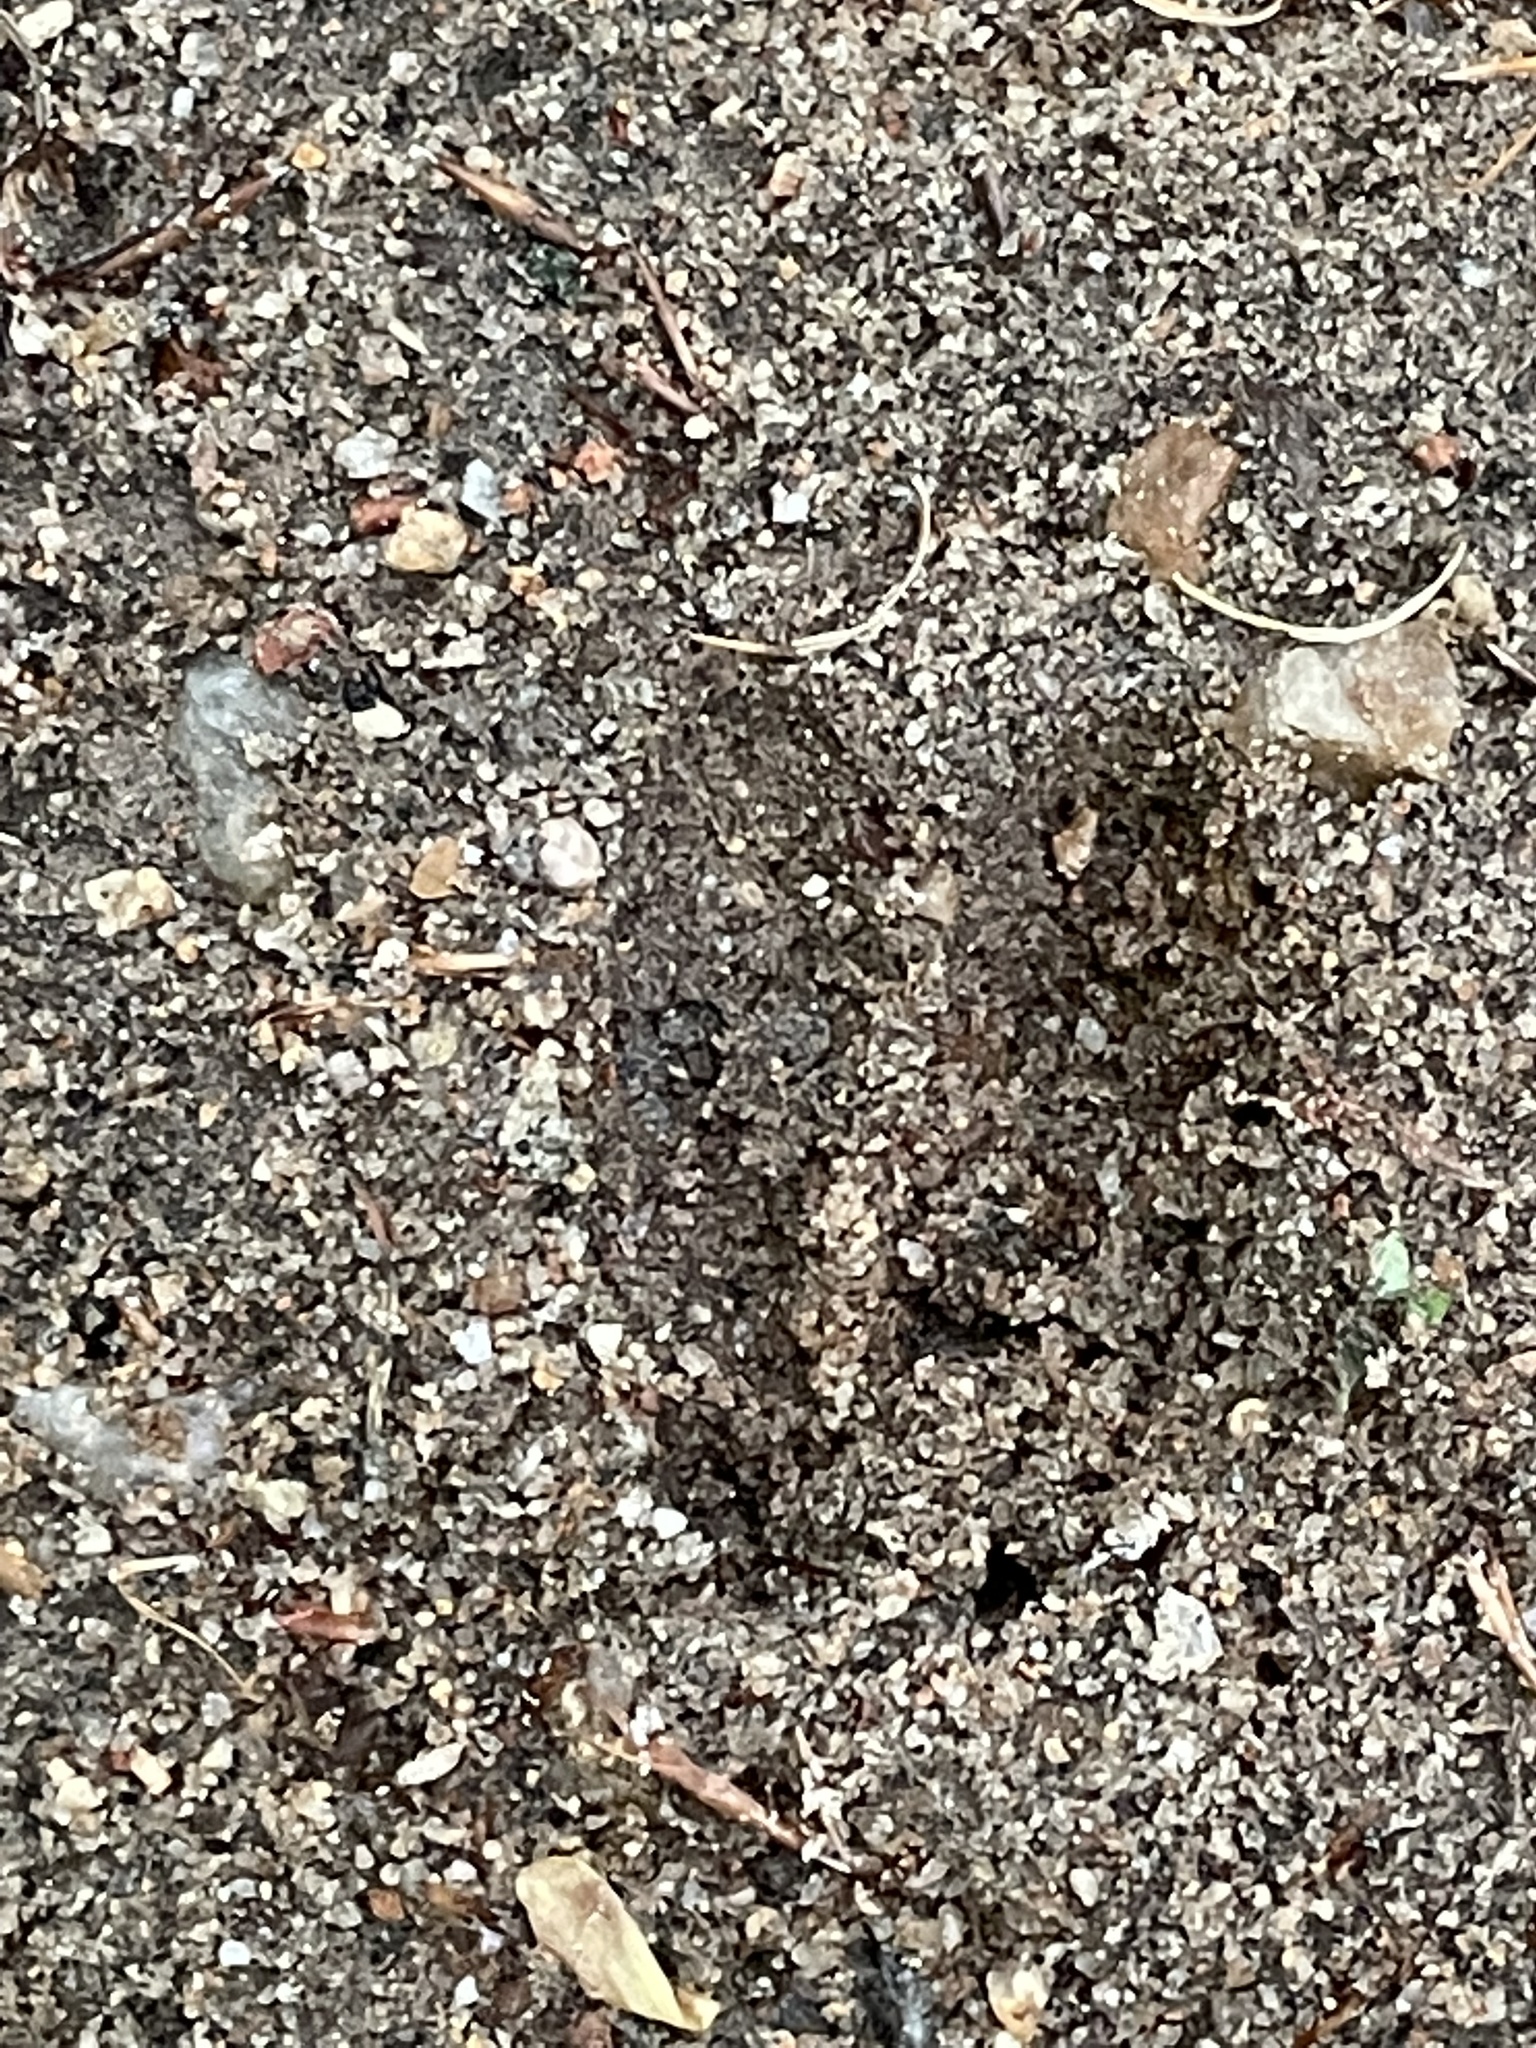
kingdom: Animalia
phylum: Chordata
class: Mammalia
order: Artiodactyla
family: Cervidae
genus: Odocoileus
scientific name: Odocoileus virginianus
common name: White-tailed deer
